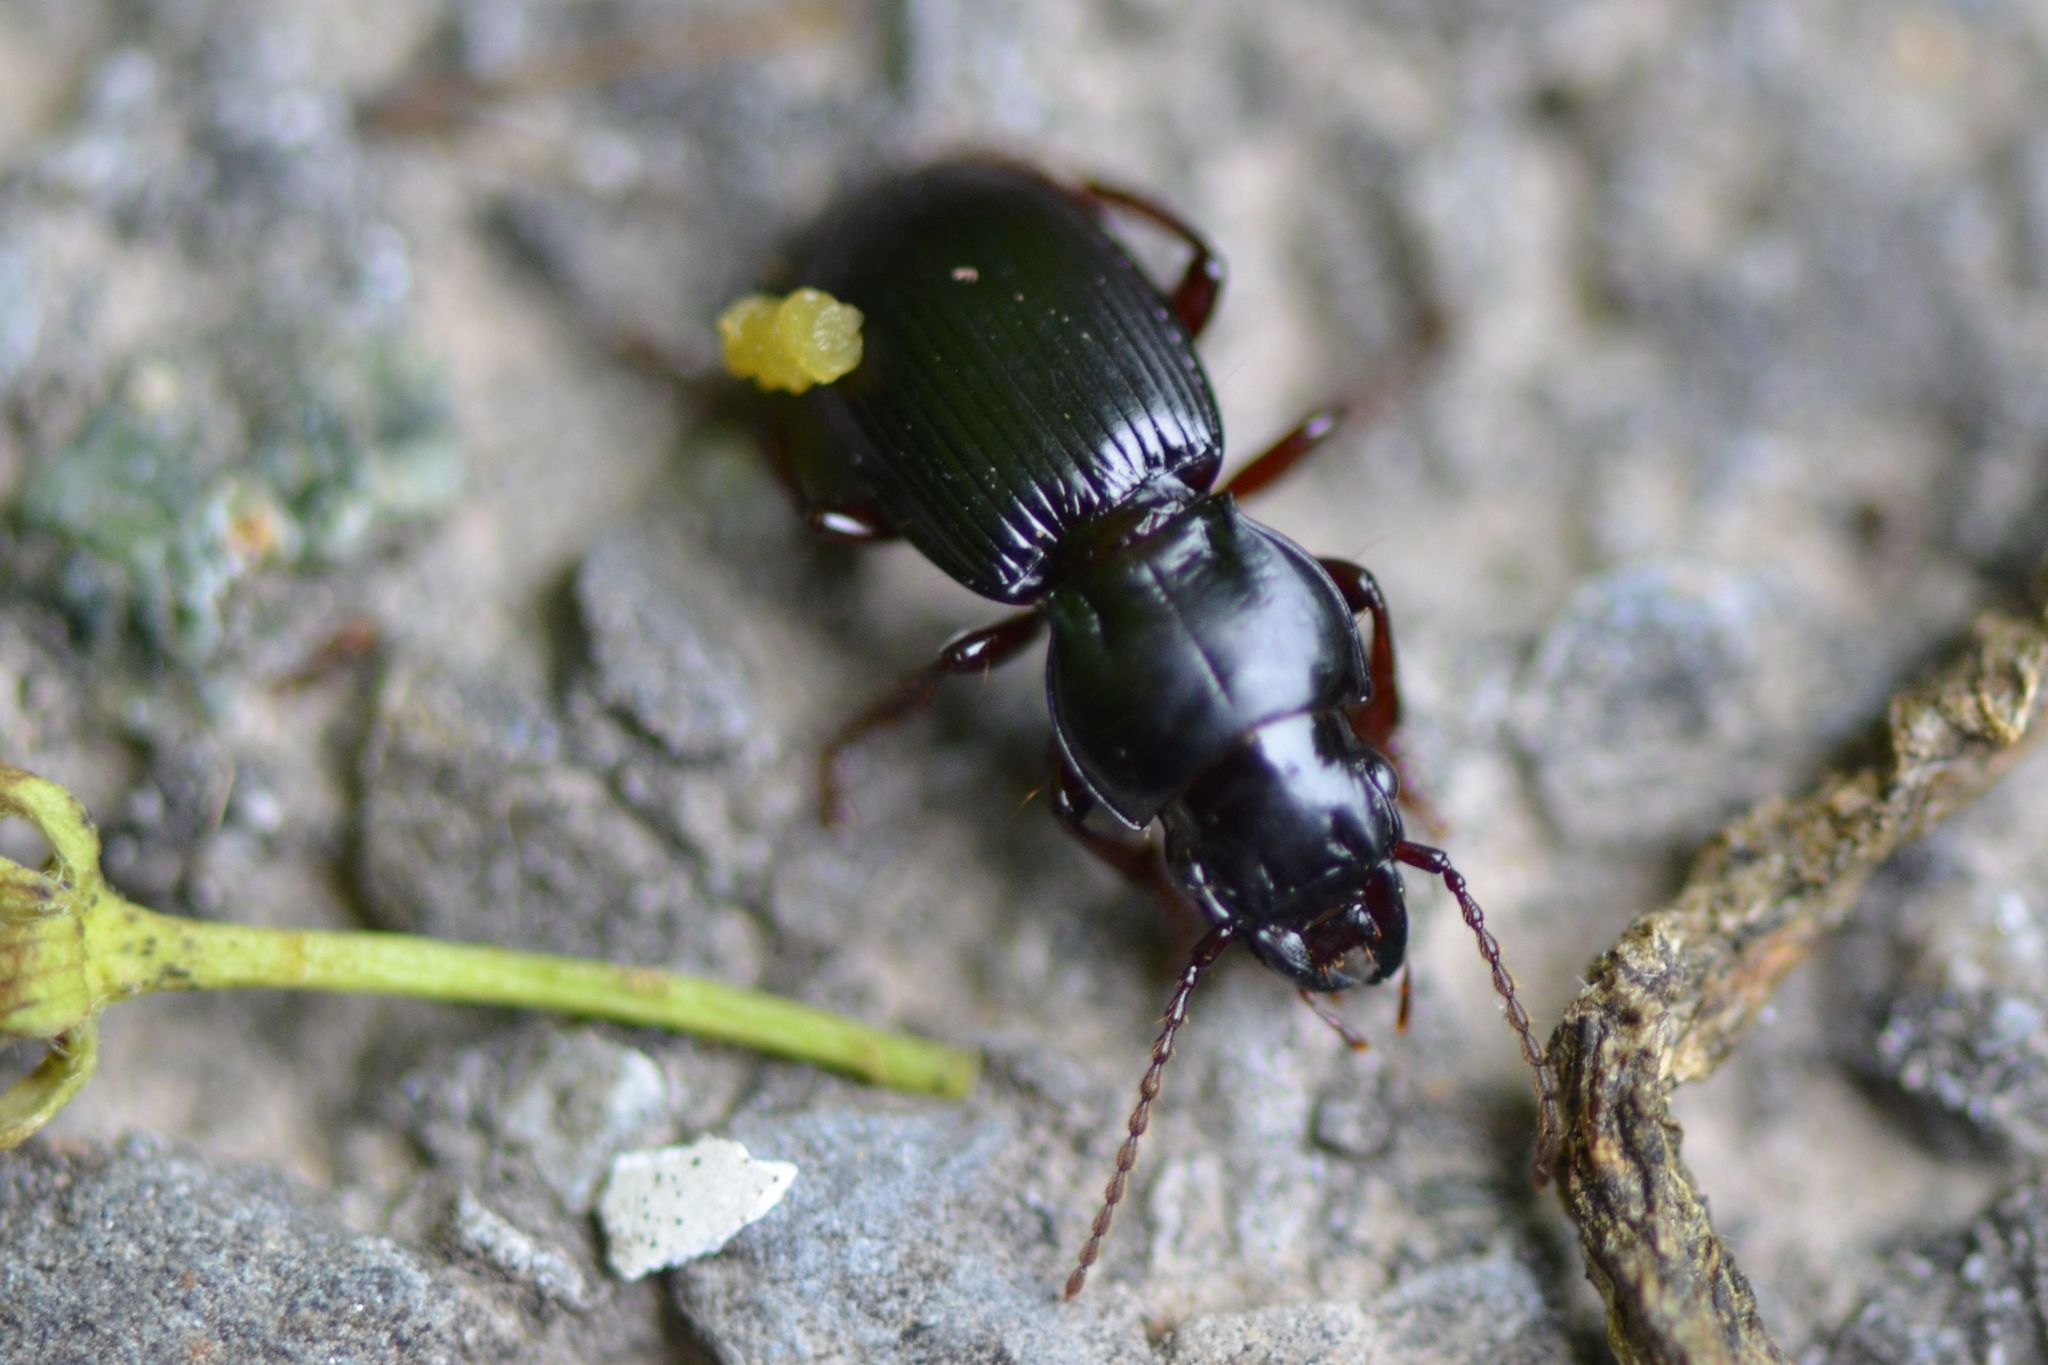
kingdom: Animalia
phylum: Arthropoda
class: Insecta
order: Coleoptera
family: Carabidae
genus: Molops
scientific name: Molops piceus
